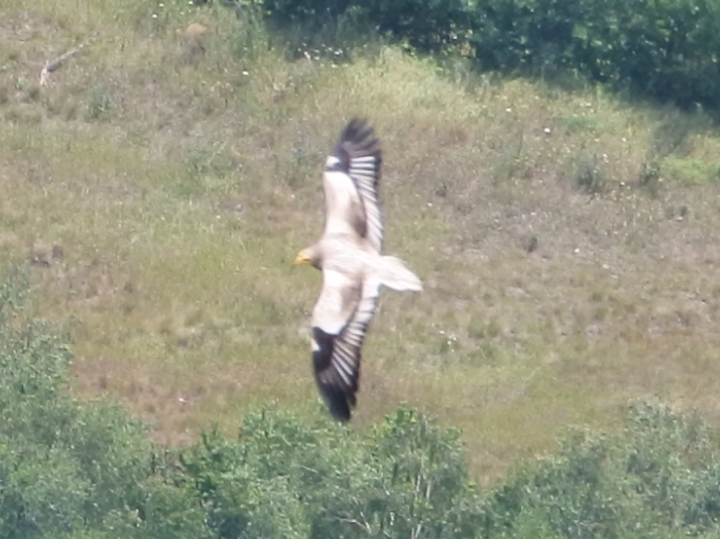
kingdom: Animalia
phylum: Chordata
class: Aves
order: Accipitriformes
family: Accipitridae
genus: Neophron
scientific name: Neophron percnopterus
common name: Egyptian vulture
